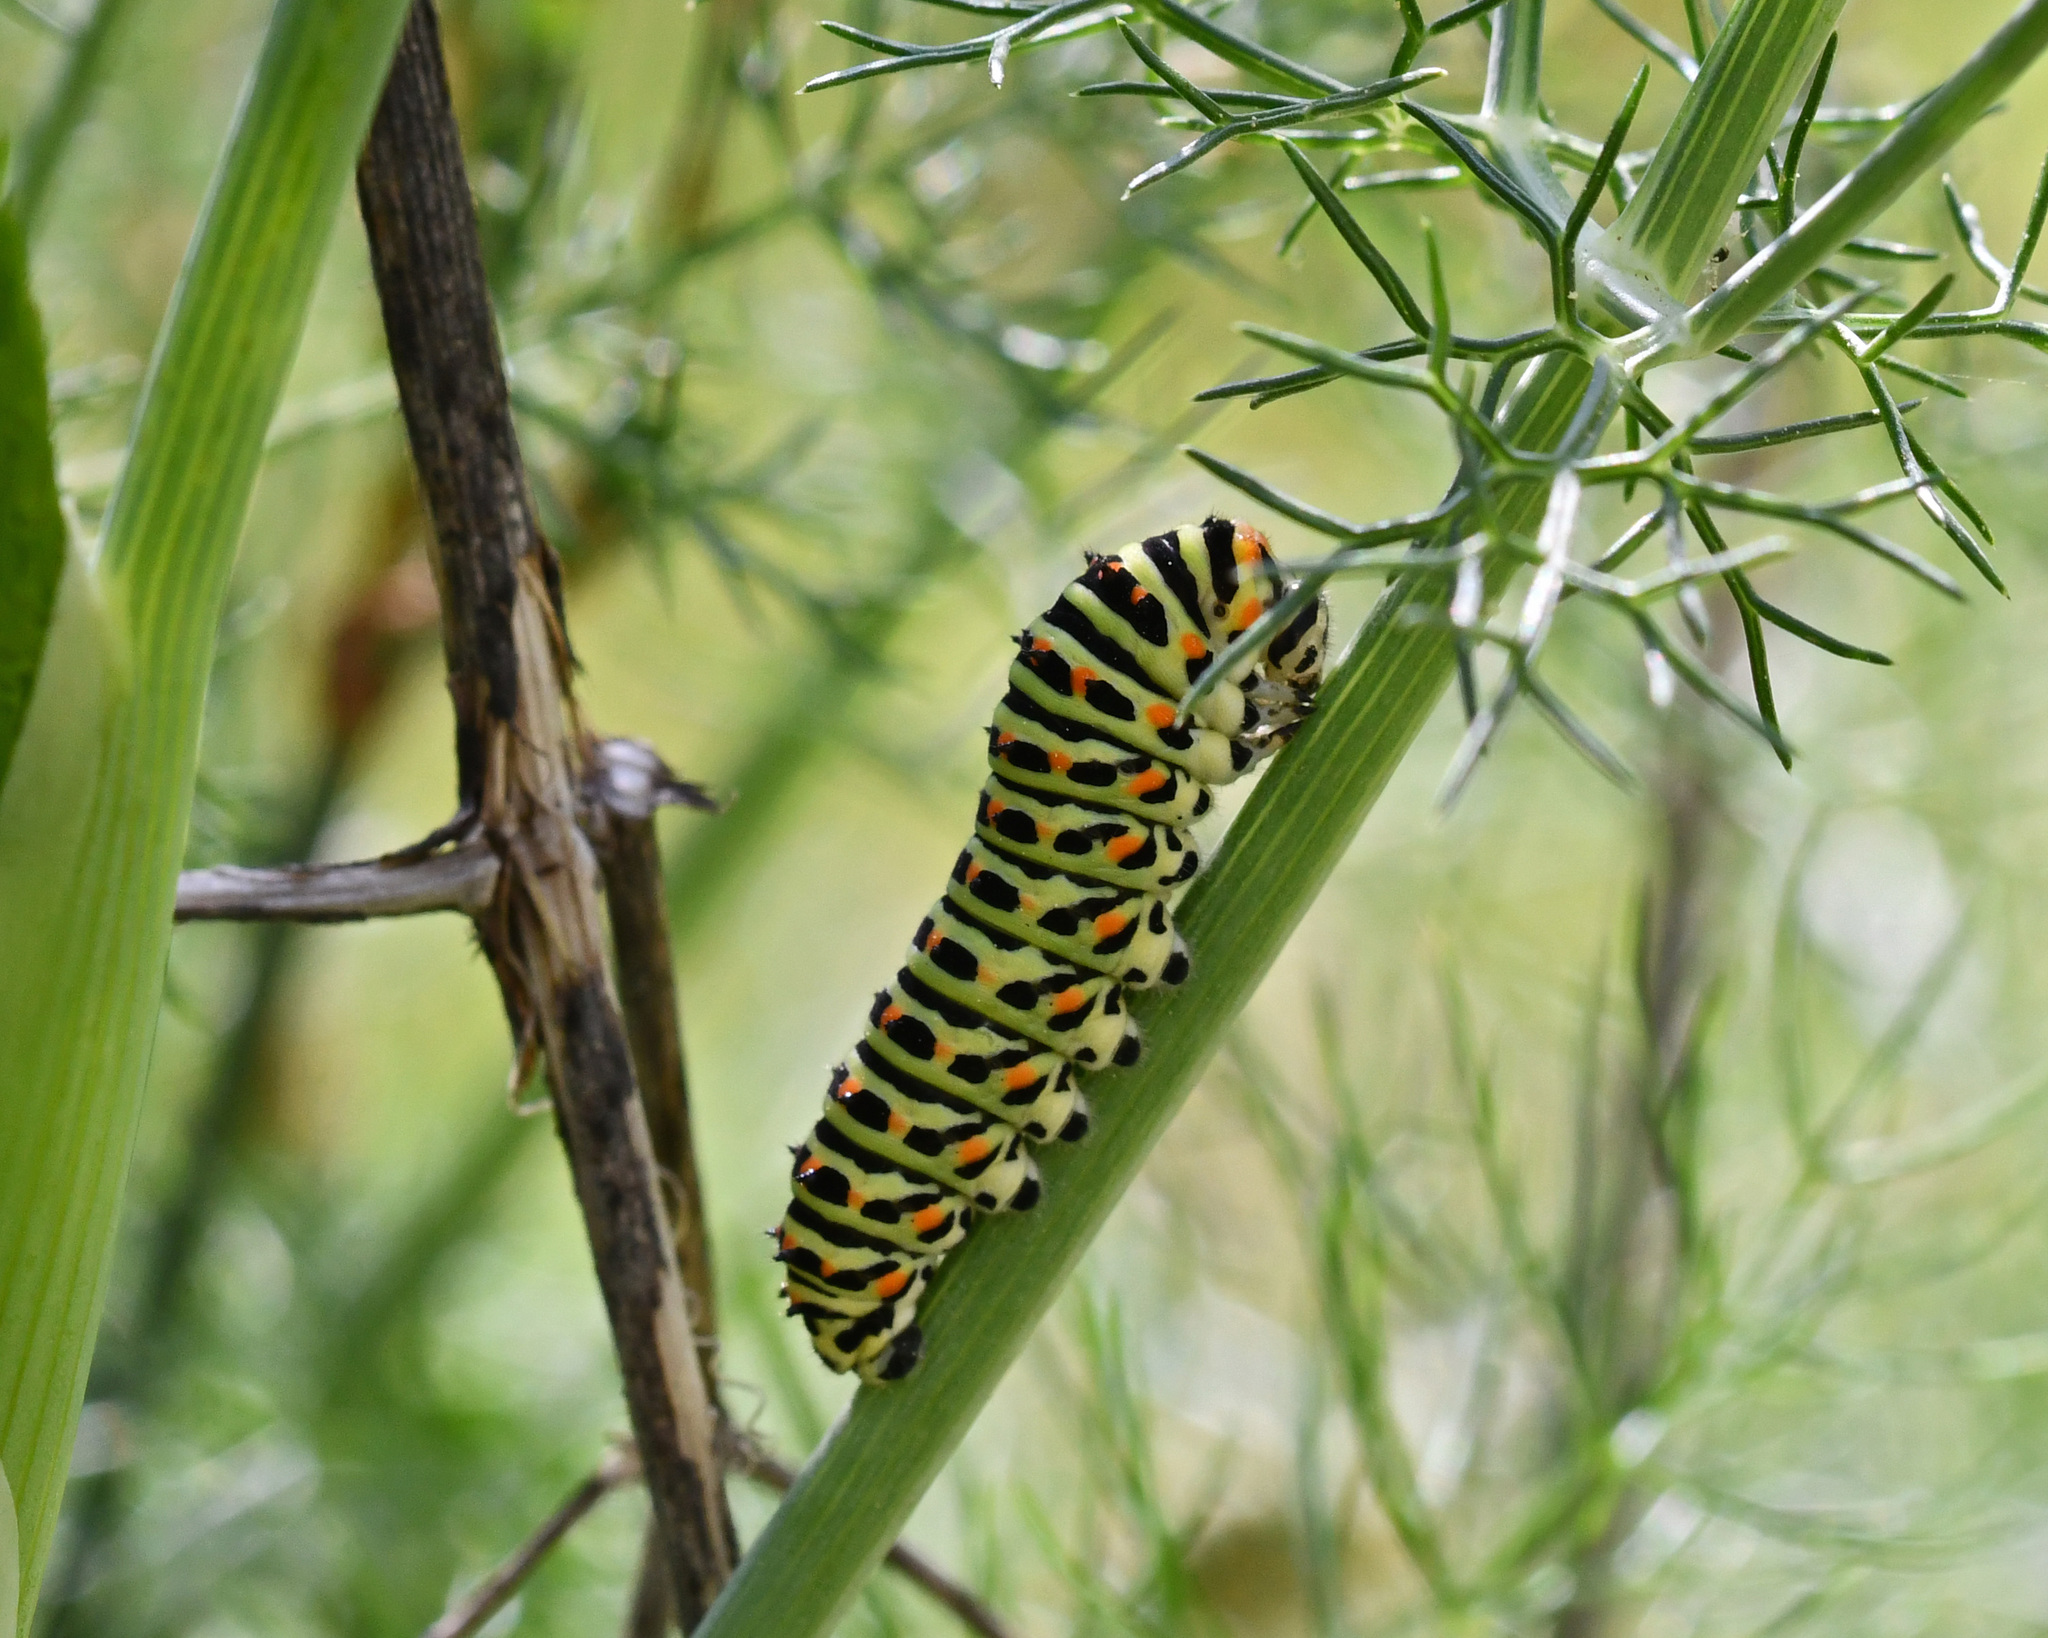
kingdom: Animalia
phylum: Arthropoda
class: Insecta
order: Lepidoptera
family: Papilionidae
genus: Papilio
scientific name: Papilio machaon
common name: Swallowtail
